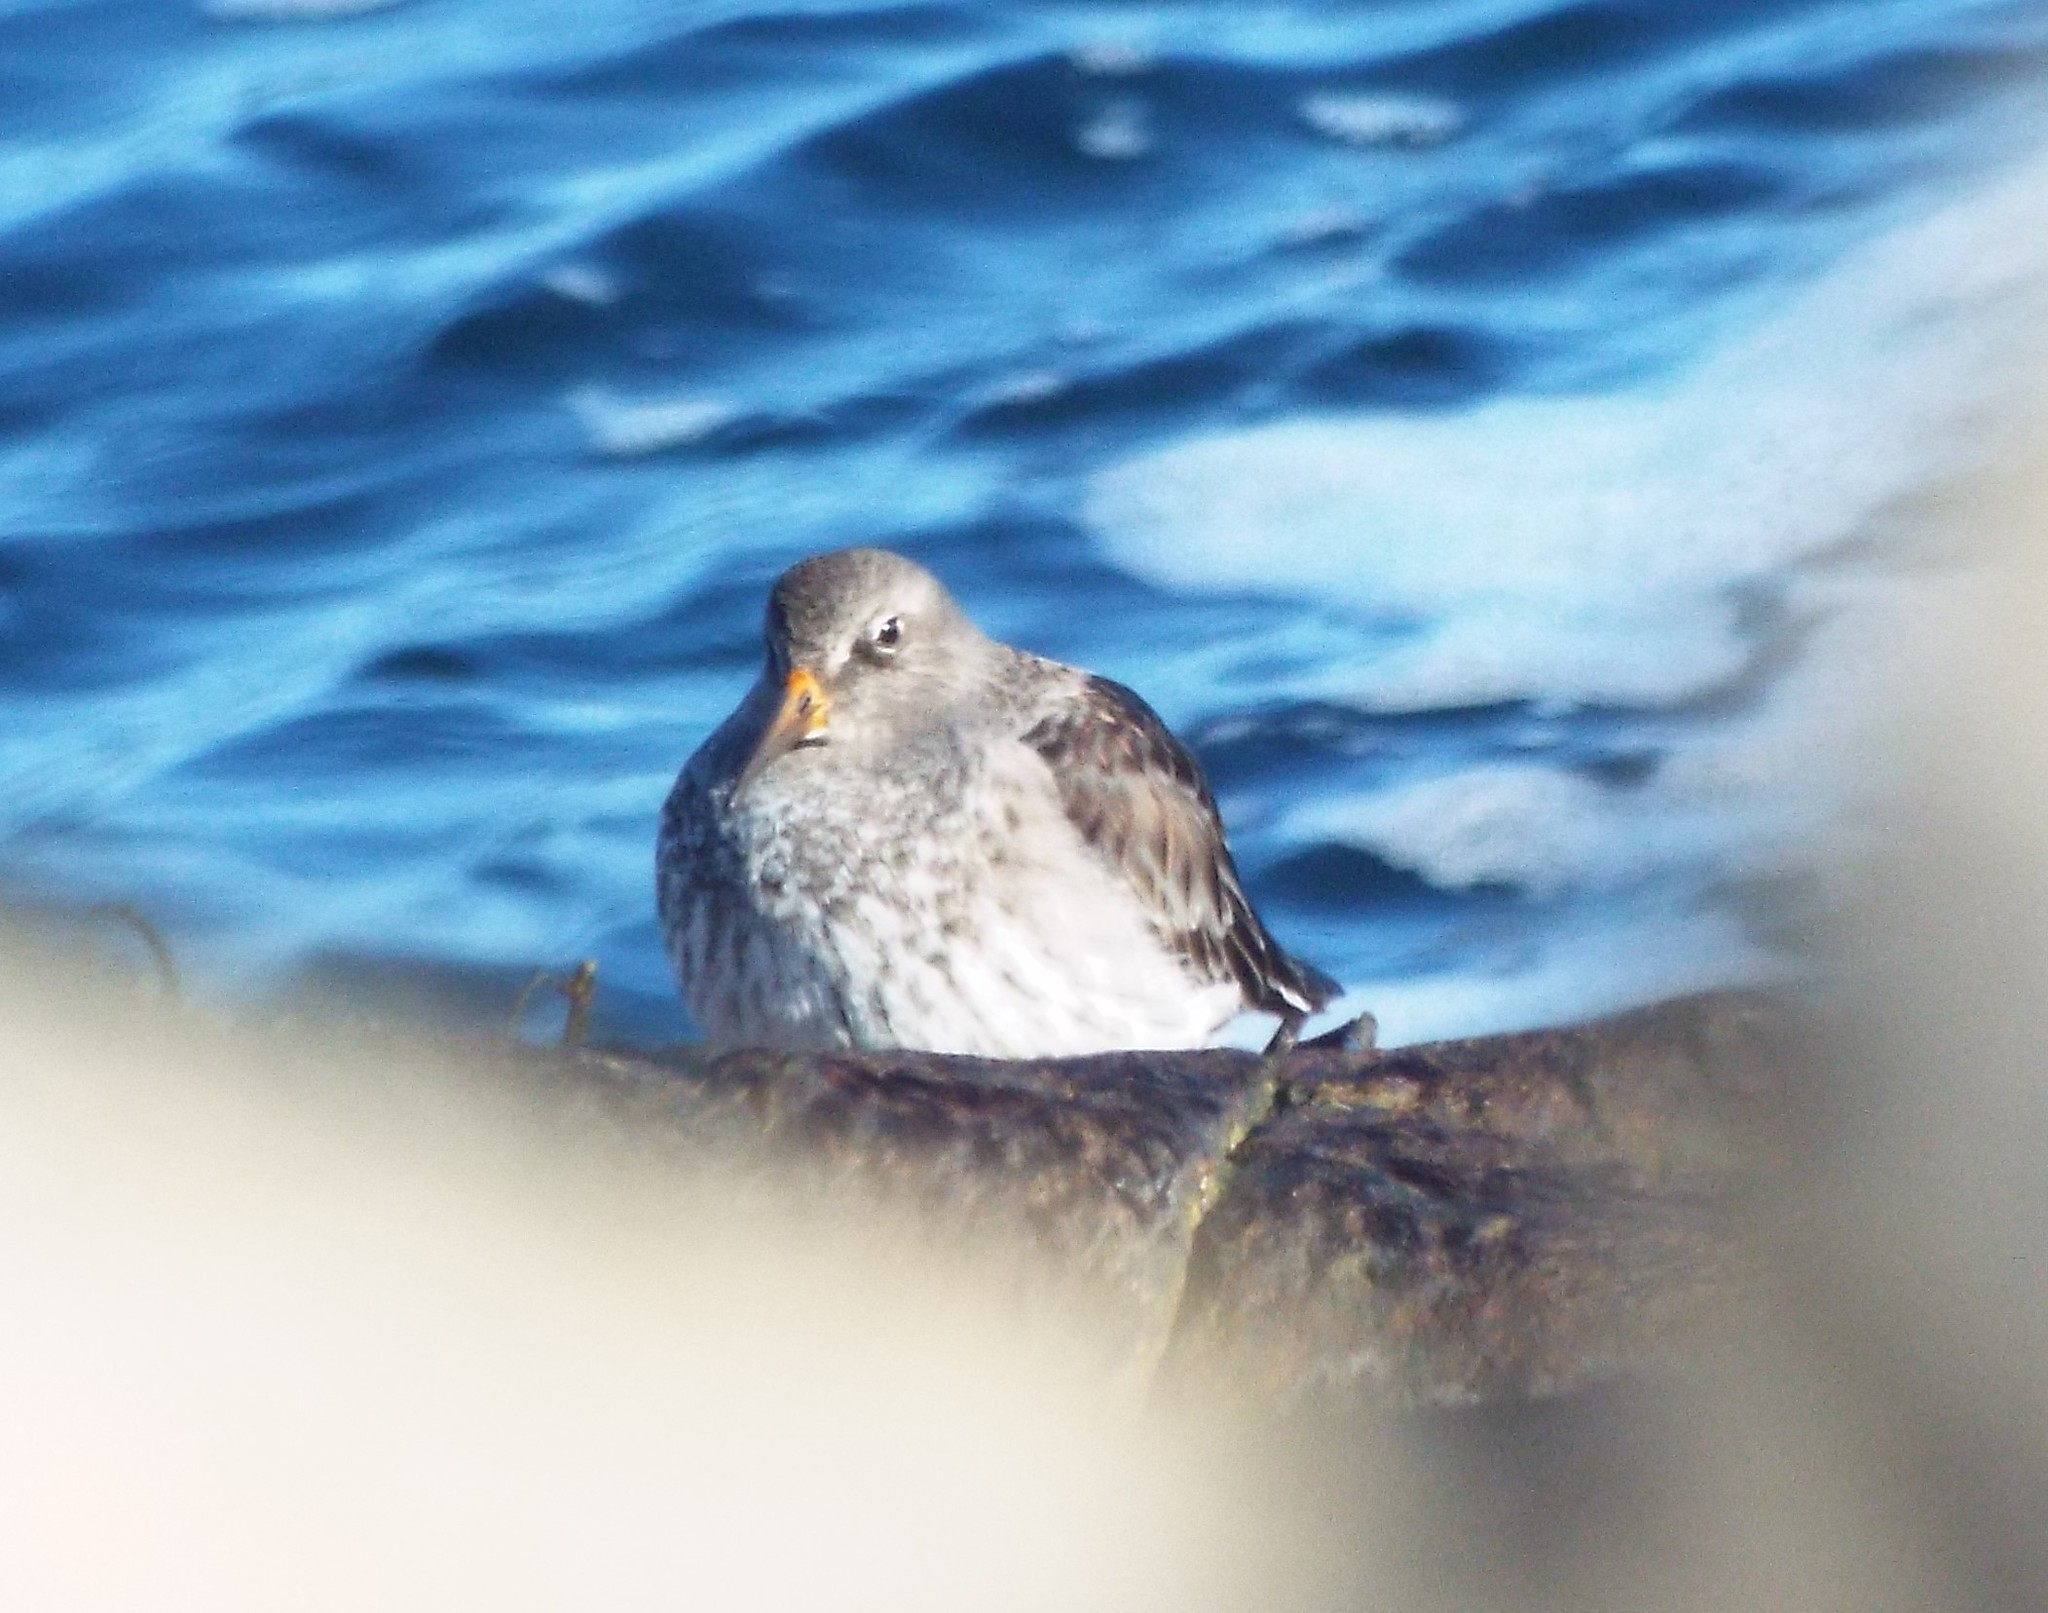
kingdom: Animalia
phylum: Chordata
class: Aves
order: Charadriiformes
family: Scolopacidae
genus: Calidris
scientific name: Calidris maritima
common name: Purple sandpiper
